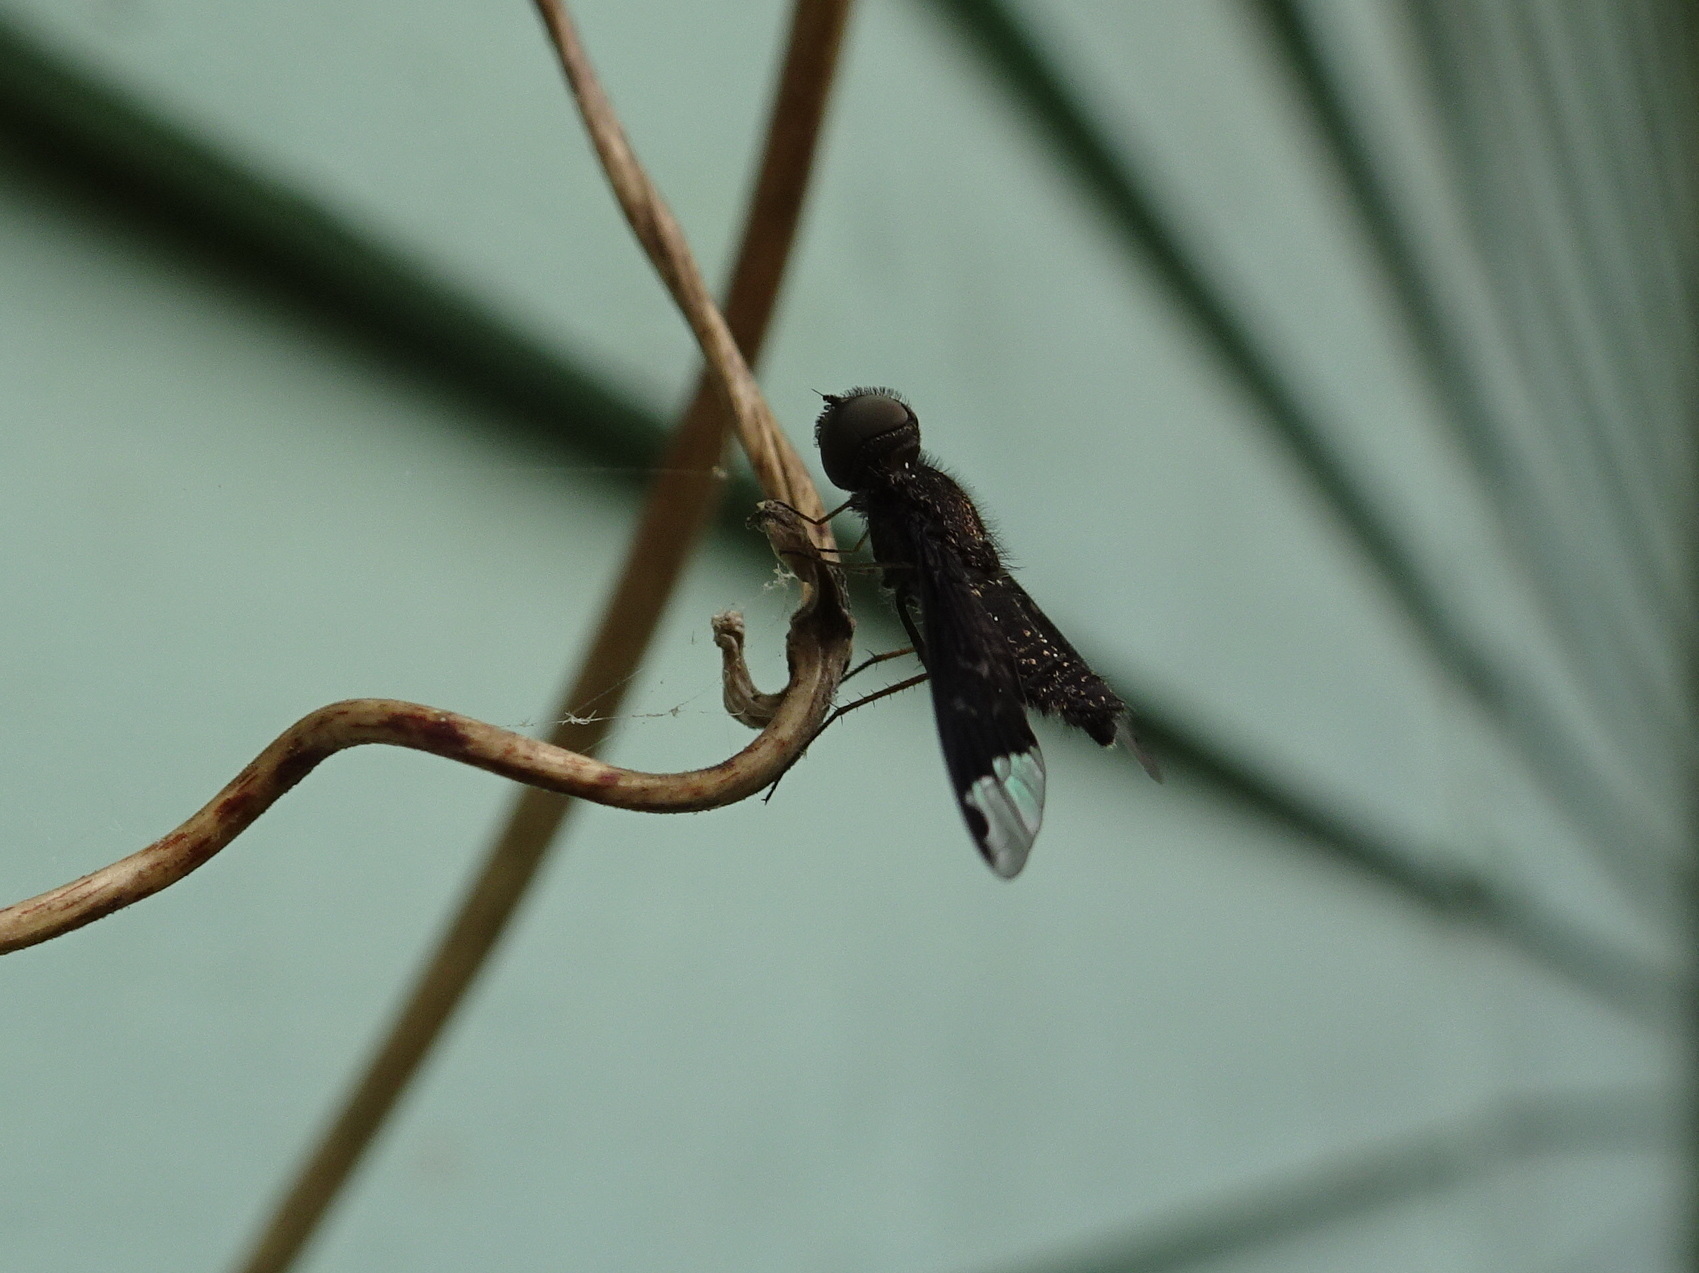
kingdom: Animalia
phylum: Arthropoda
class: Insecta
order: Diptera
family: Bombyliidae
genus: Hemipenthes
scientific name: Hemipenthes sinuosus
